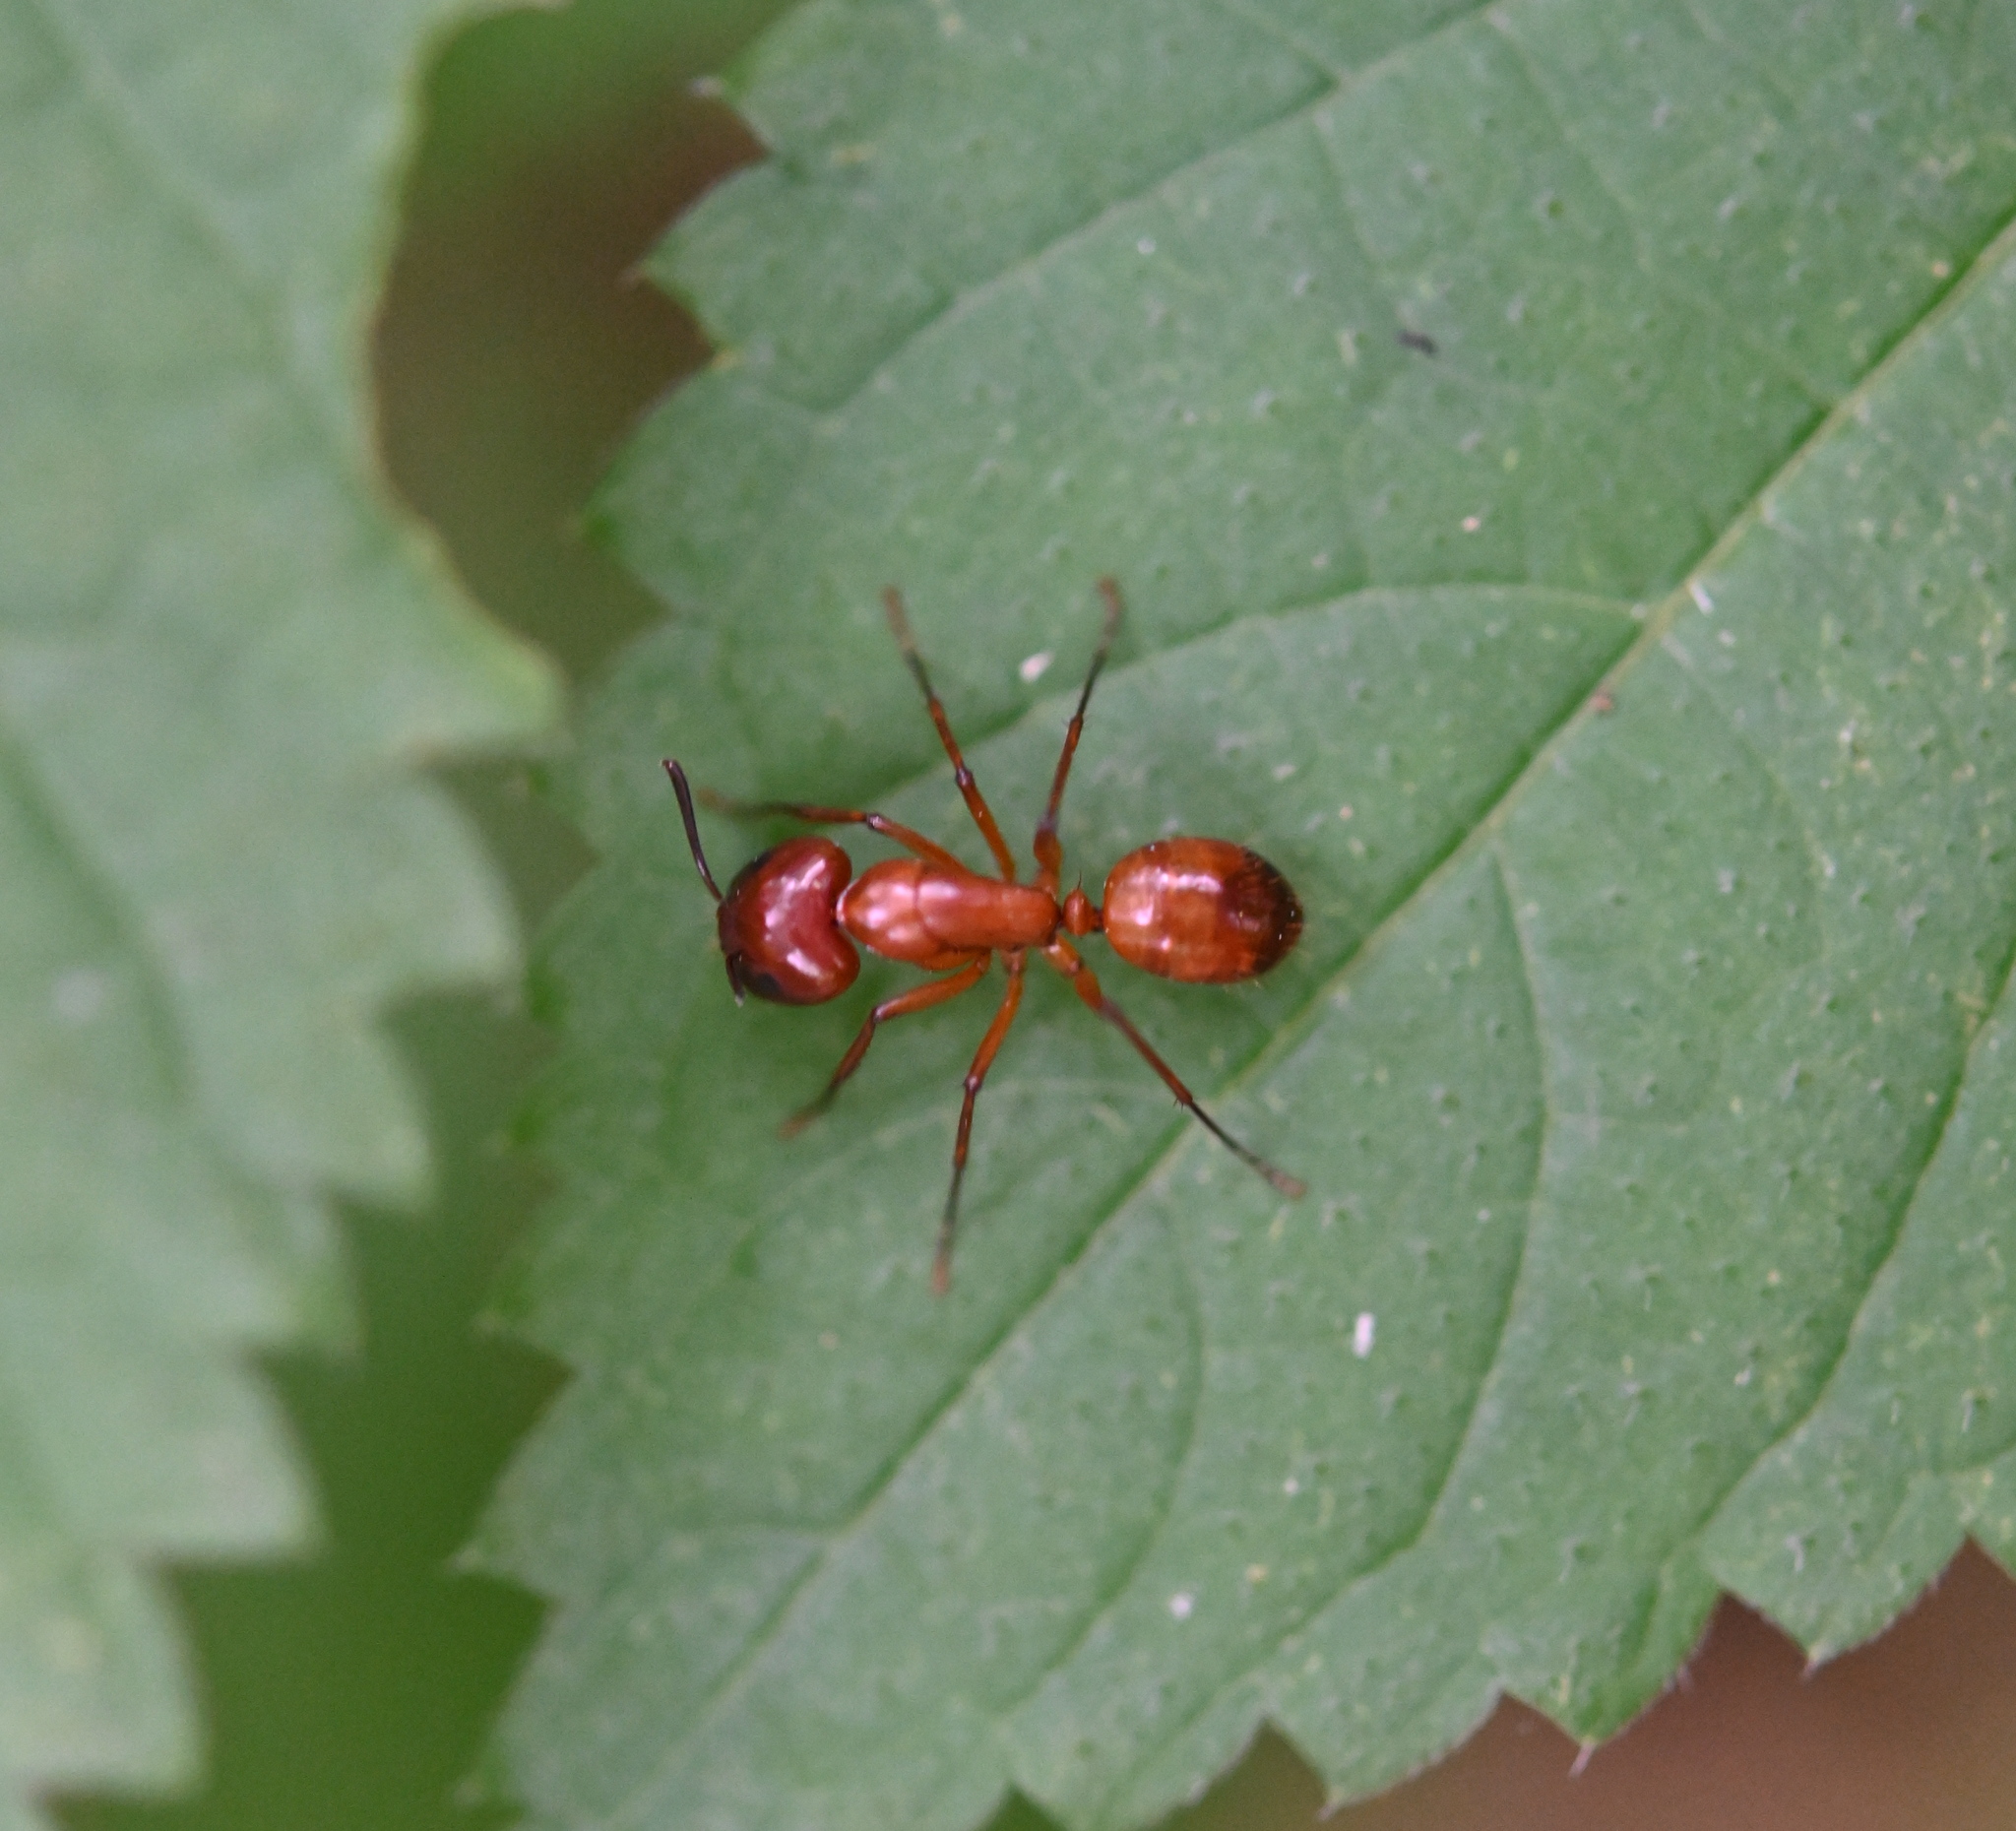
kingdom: Animalia
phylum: Arthropoda
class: Insecta
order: Hymenoptera
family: Formicidae
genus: Camponotus
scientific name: Camponotus castaneus
